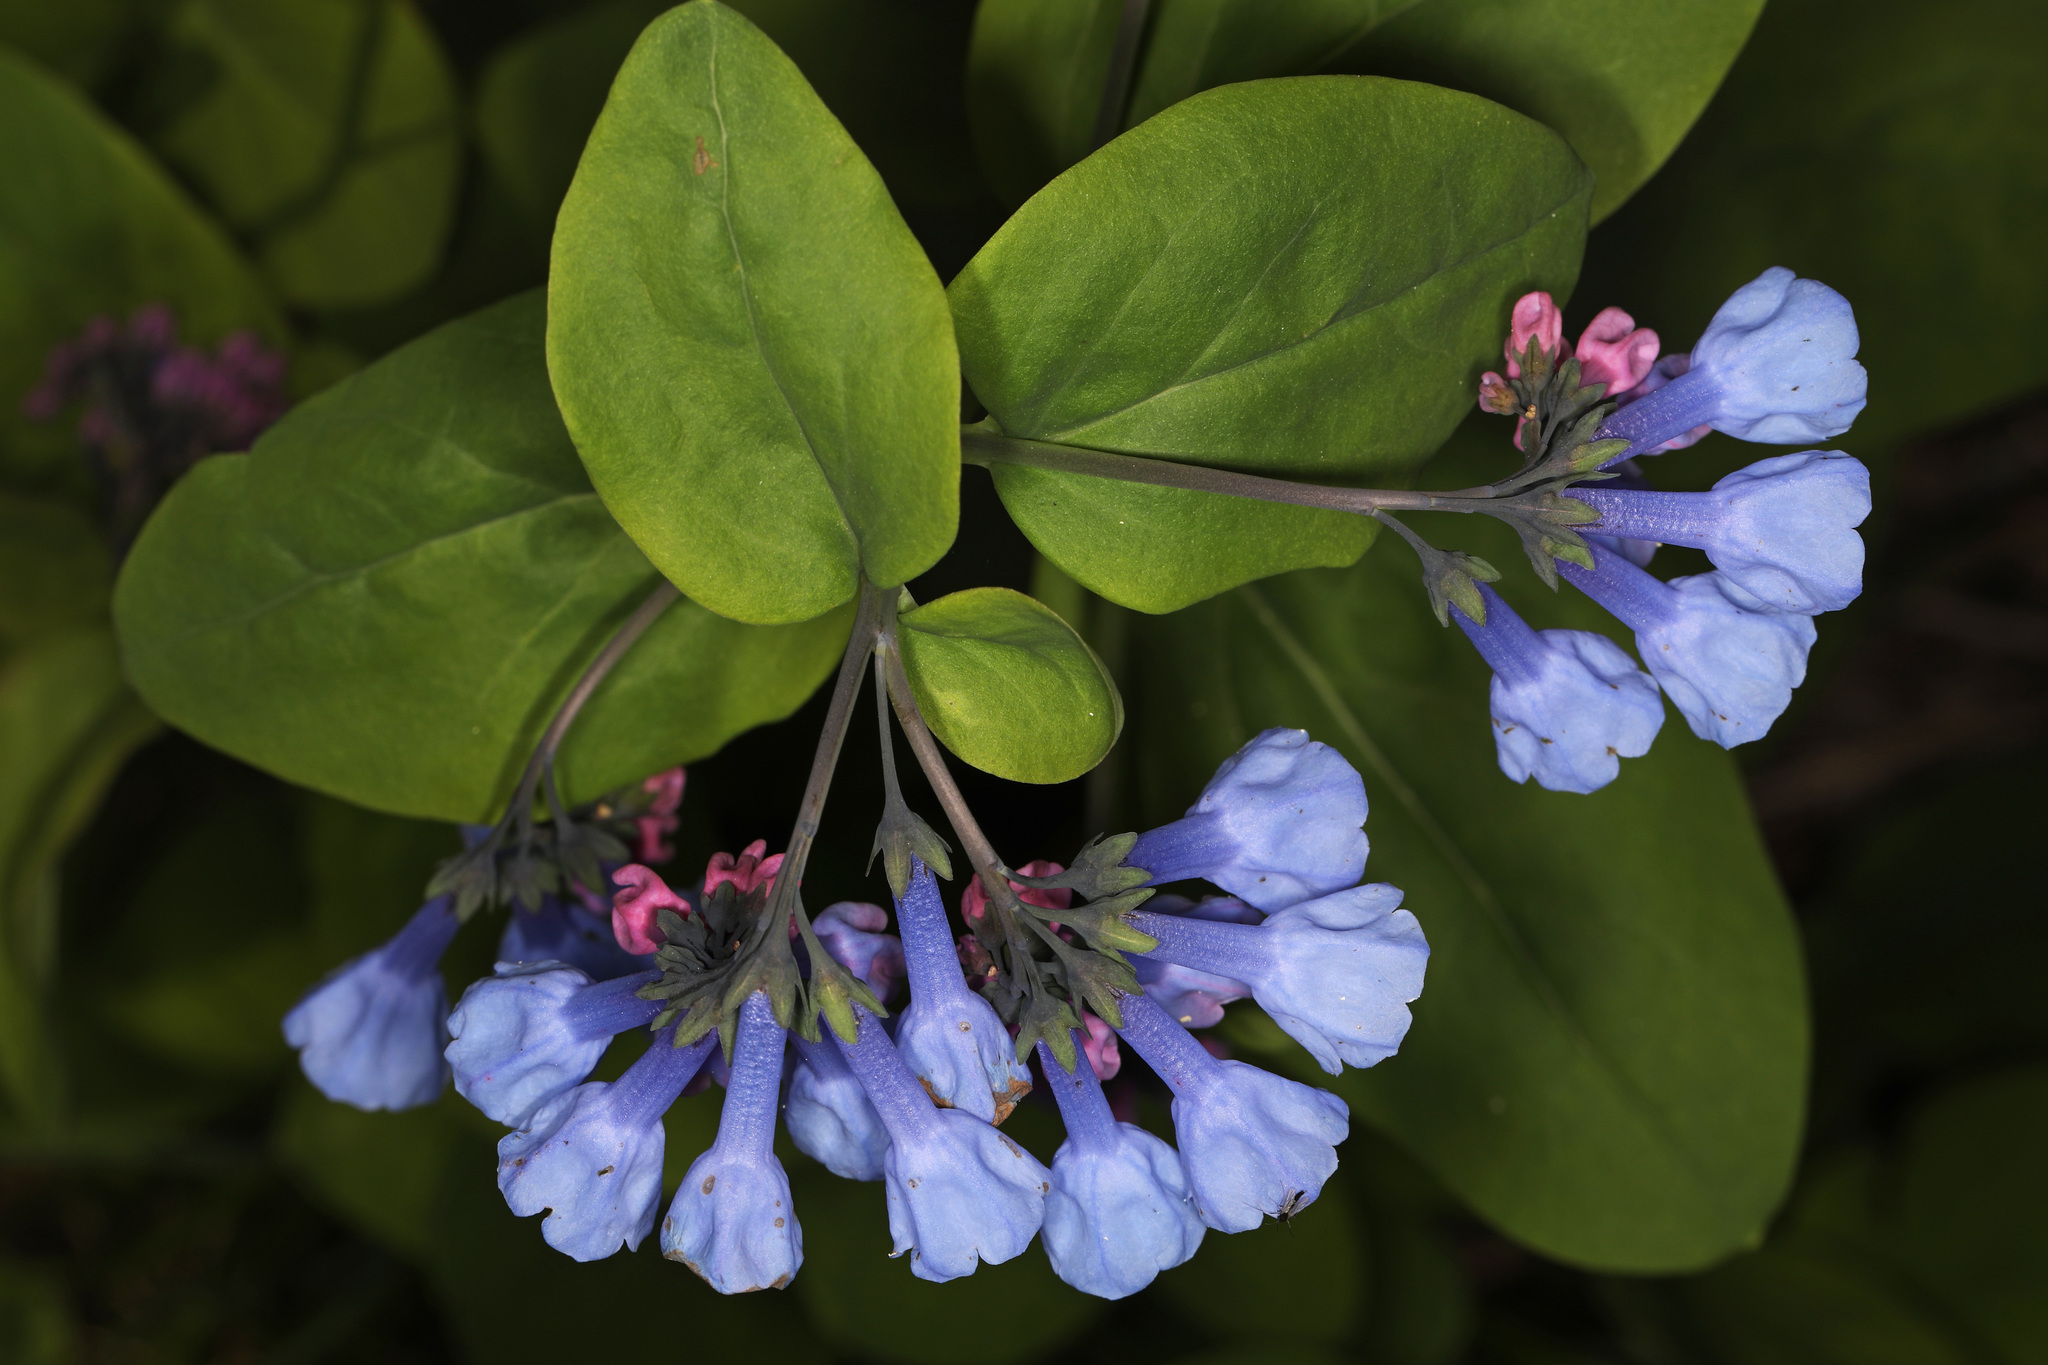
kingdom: Plantae
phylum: Tracheophyta
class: Magnoliopsida
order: Boraginales
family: Boraginaceae
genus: Mertensia
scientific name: Mertensia virginica
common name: Virginia bluebells
